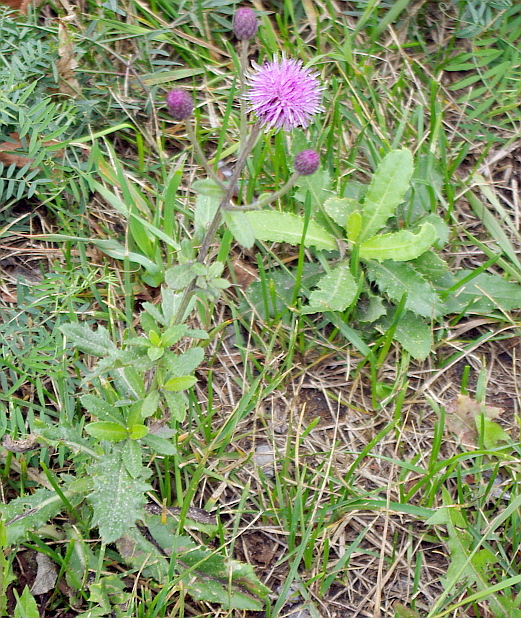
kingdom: Plantae
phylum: Tracheophyta
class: Magnoliopsida
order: Asterales
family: Asteraceae
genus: Cirsium
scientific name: Cirsium arvense
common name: Creeping thistle
